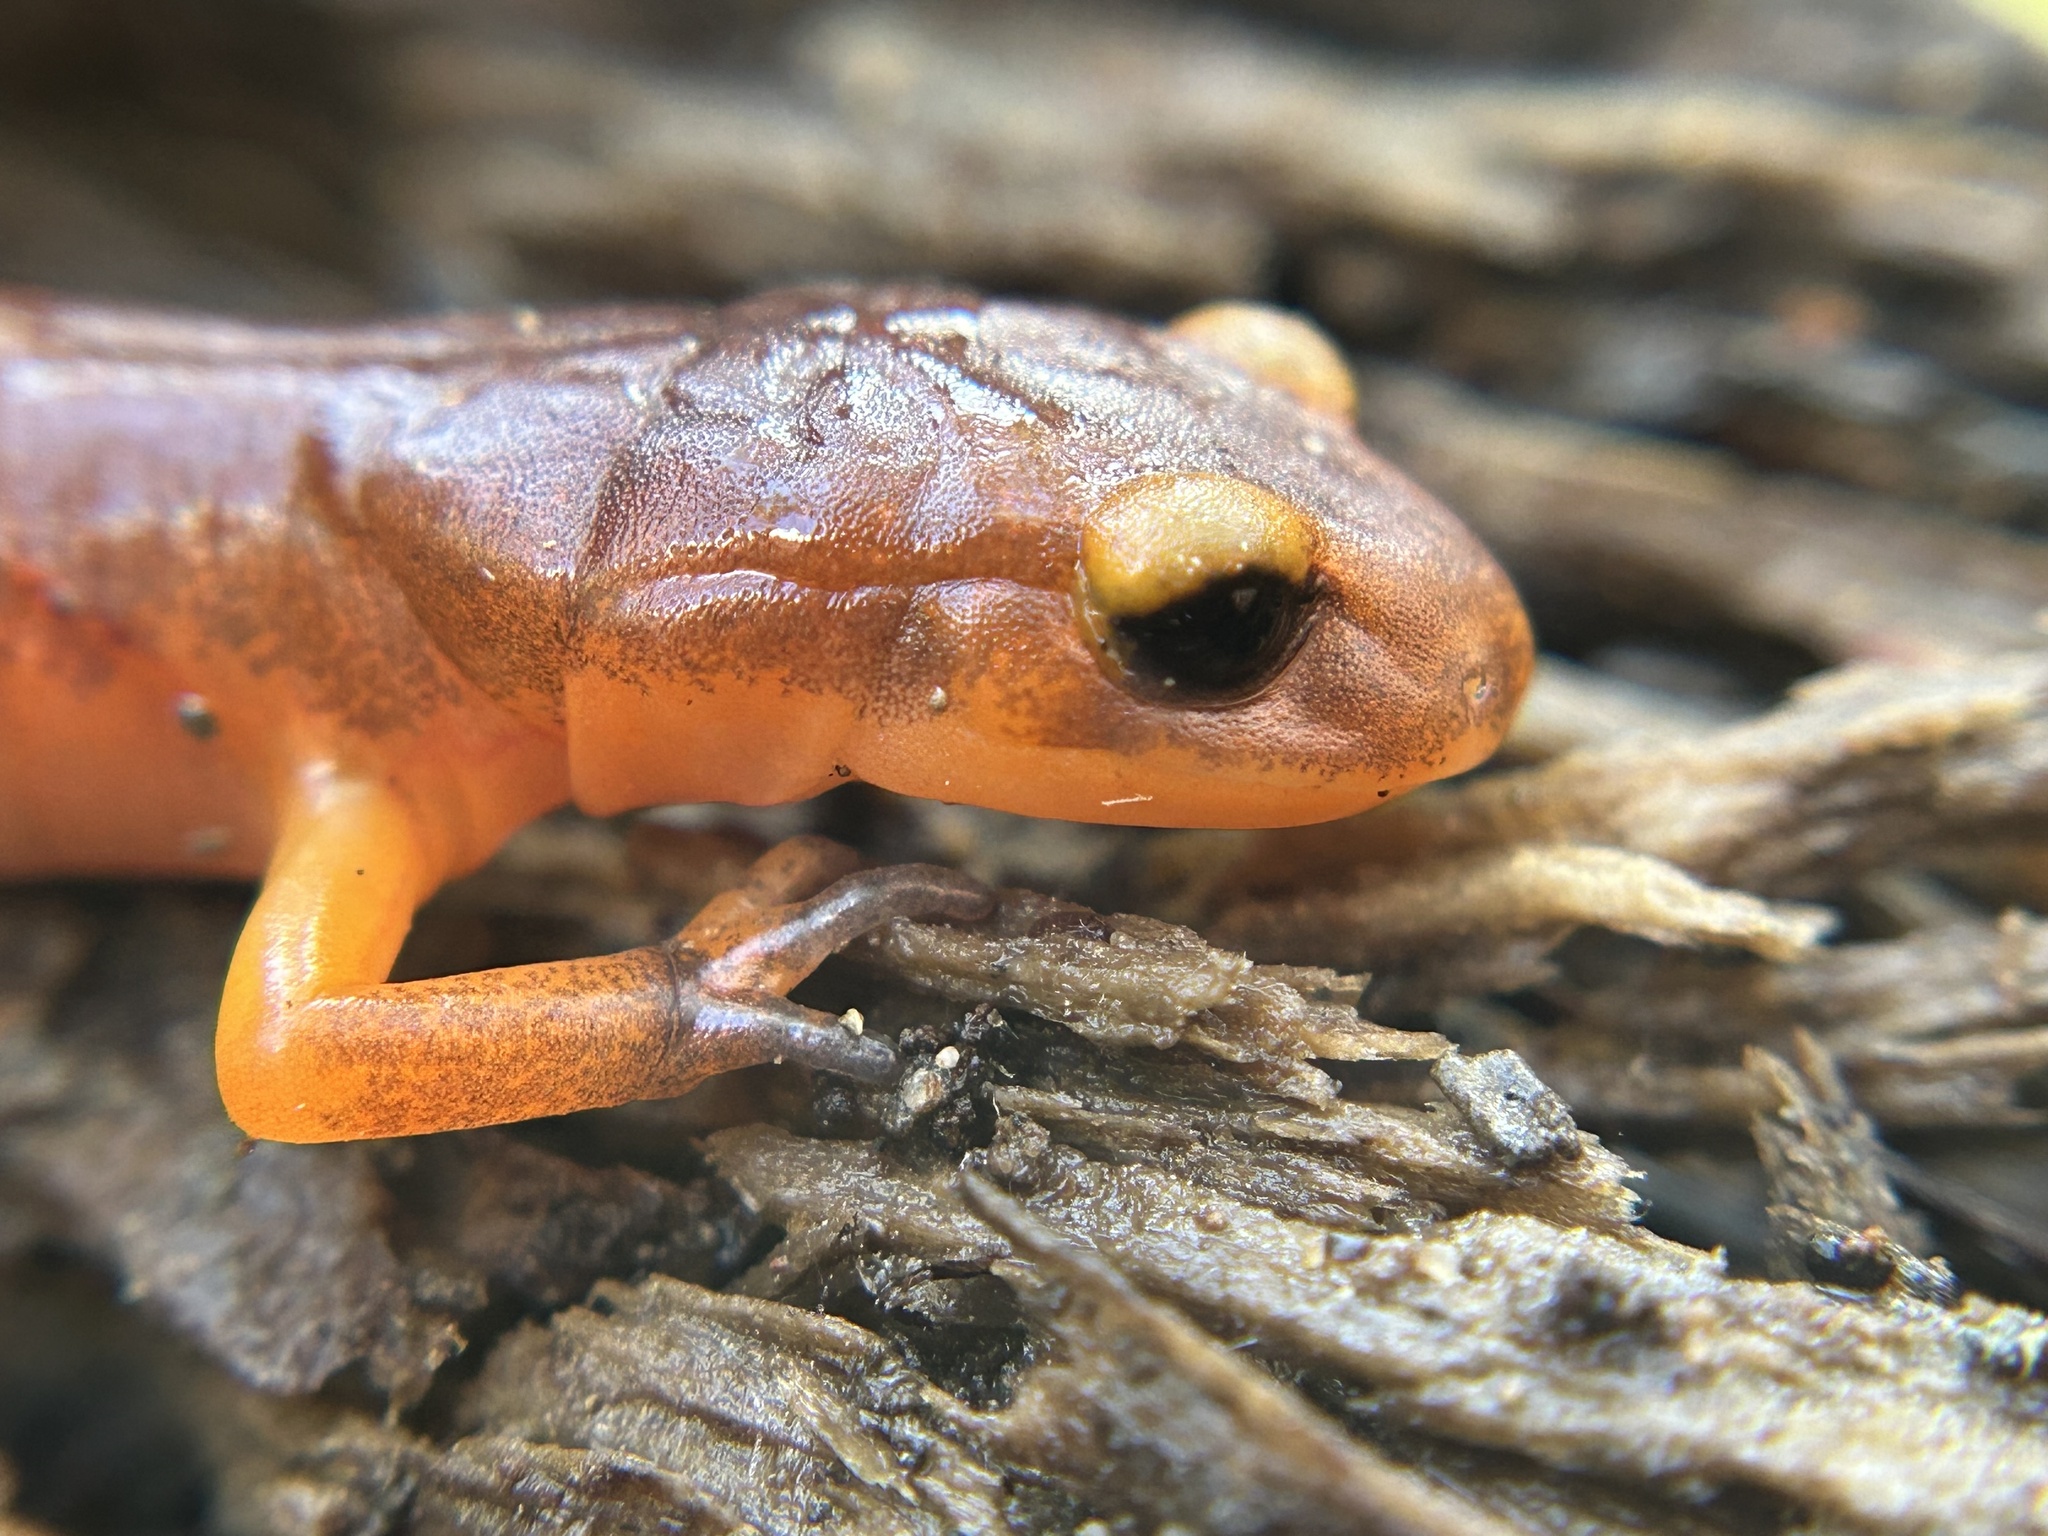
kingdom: Animalia
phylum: Chordata
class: Amphibia
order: Caudata
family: Plethodontidae
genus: Ensatina
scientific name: Ensatina eschscholtzii
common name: Ensatina
